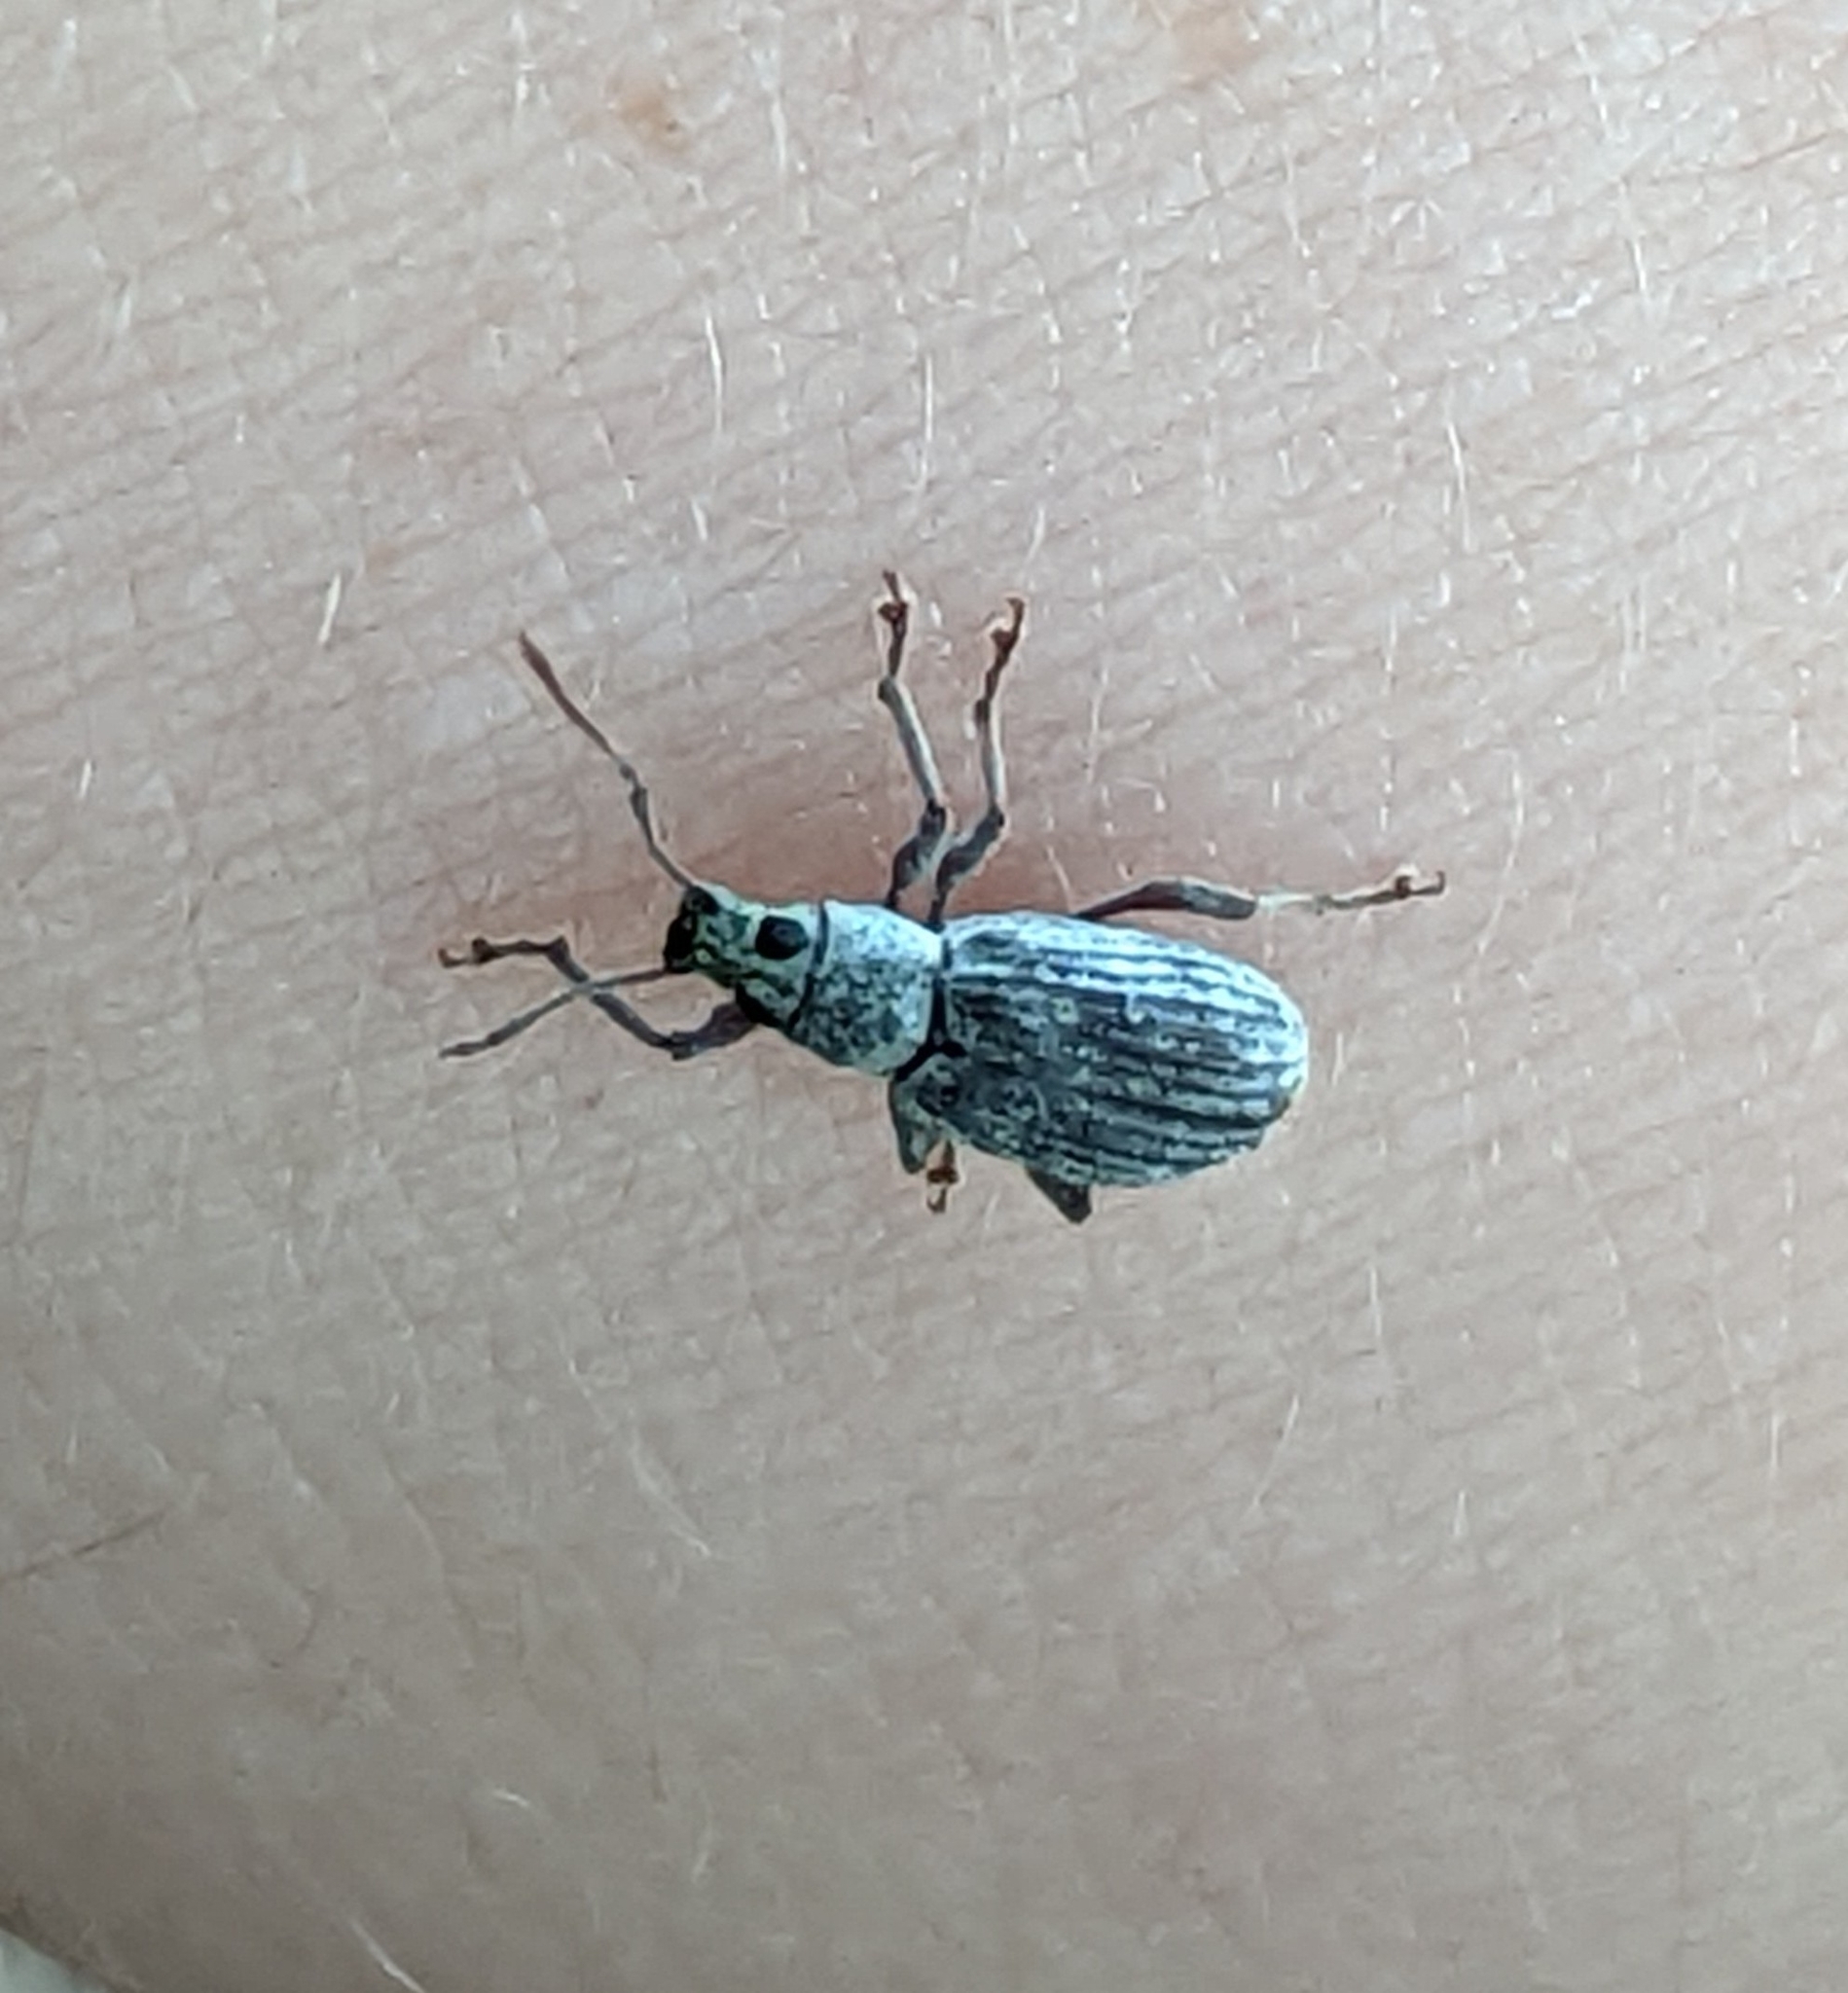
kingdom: Animalia
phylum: Arthropoda
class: Insecta
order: Coleoptera
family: Curculionidae
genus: Cyrtepistomus
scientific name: Cyrtepistomus castaneus
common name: Weevil
